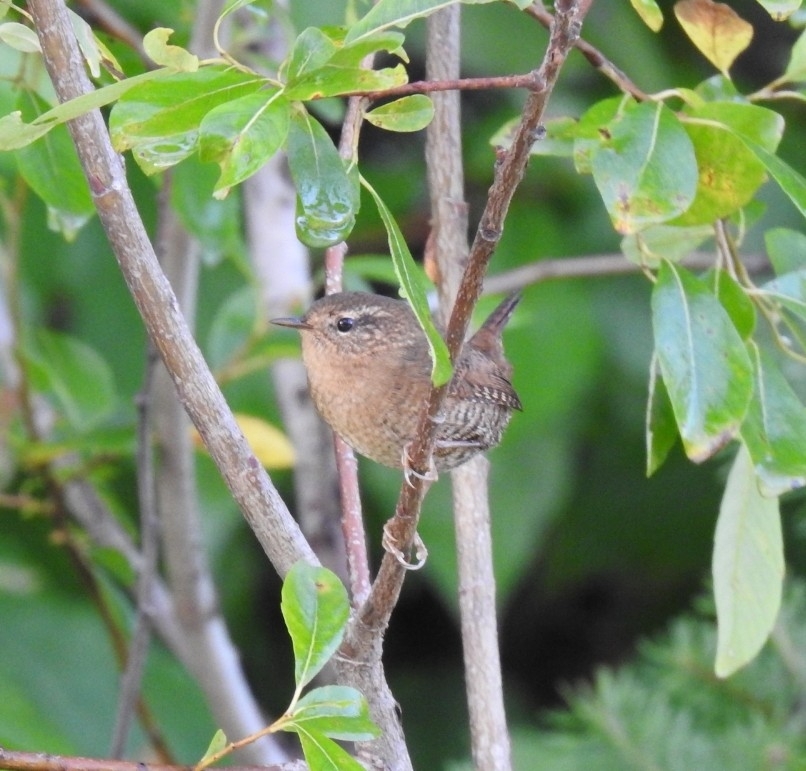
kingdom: Animalia
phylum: Chordata
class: Aves
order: Passeriformes
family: Troglodytidae
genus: Troglodytes
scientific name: Troglodytes pacificus
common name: Pacific wren
